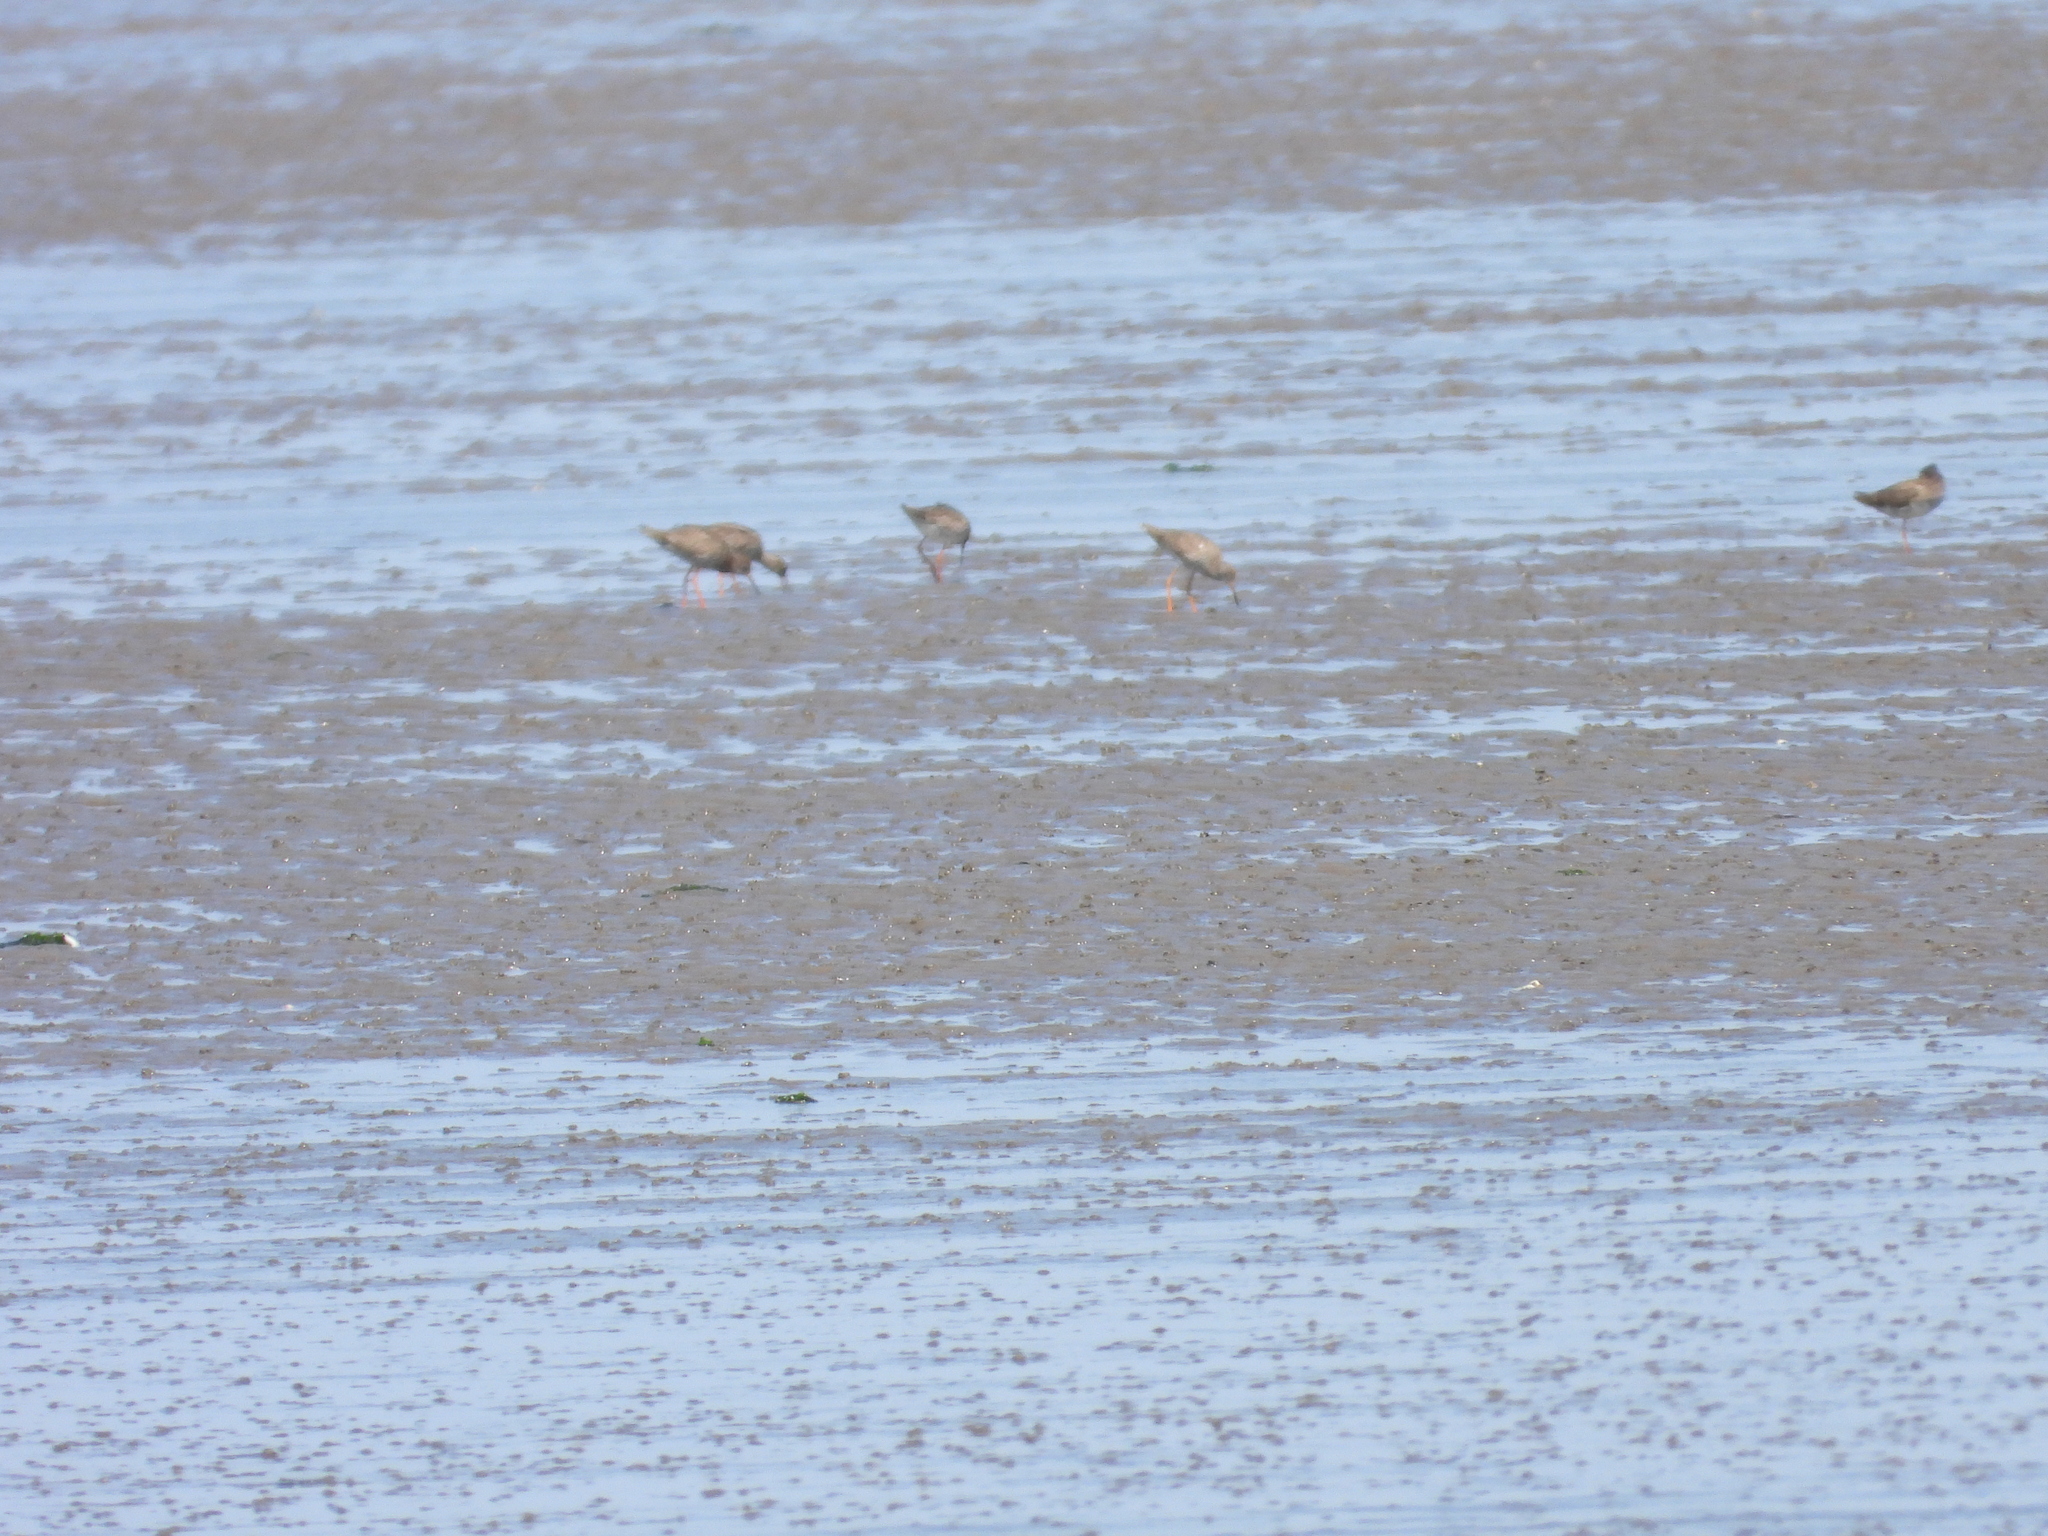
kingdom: Animalia
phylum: Chordata
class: Aves
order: Charadriiformes
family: Scolopacidae
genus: Tringa
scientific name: Tringa totanus
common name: Common redshank
